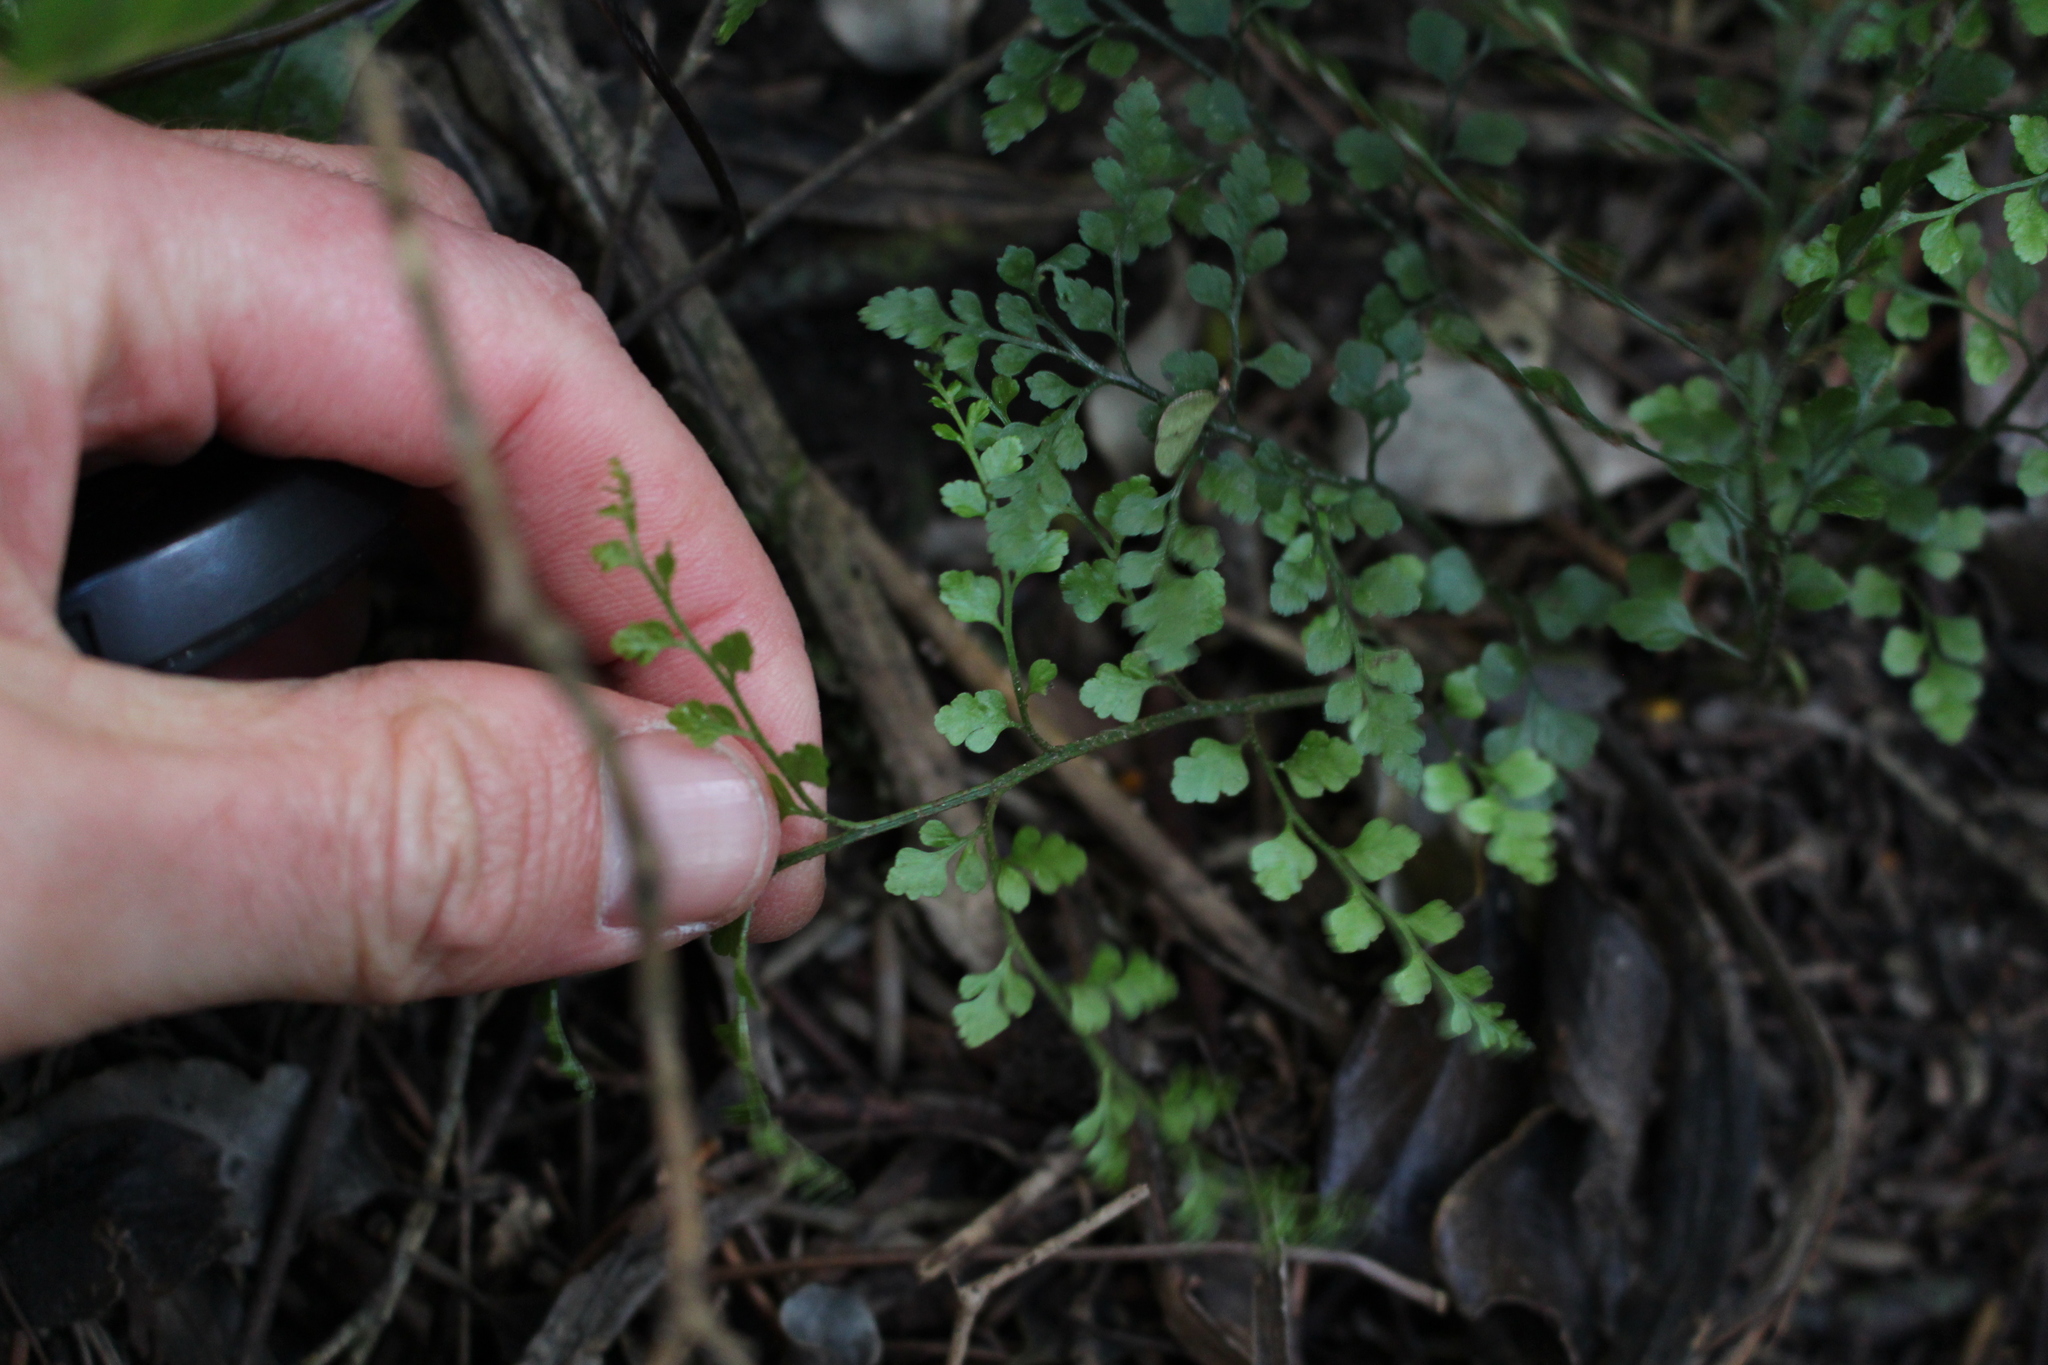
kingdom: Plantae
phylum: Tracheophyta
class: Polypodiopsida
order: Polypodiales
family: Aspleniaceae
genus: Asplenium
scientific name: Asplenium hookerianum
